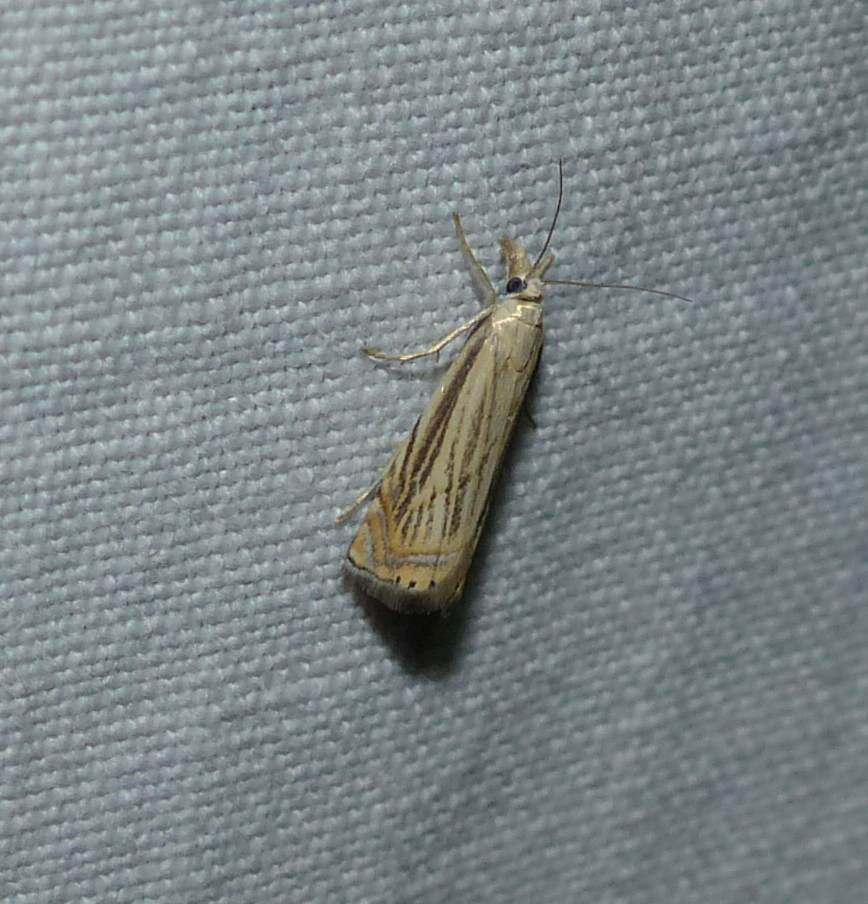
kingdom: Animalia
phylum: Arthropoda
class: Insecta
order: Lepidoptera
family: Crambidae
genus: Chrysoteuchia
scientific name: Chrysoteuchia topiarius
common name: Topiary grass-veneer
